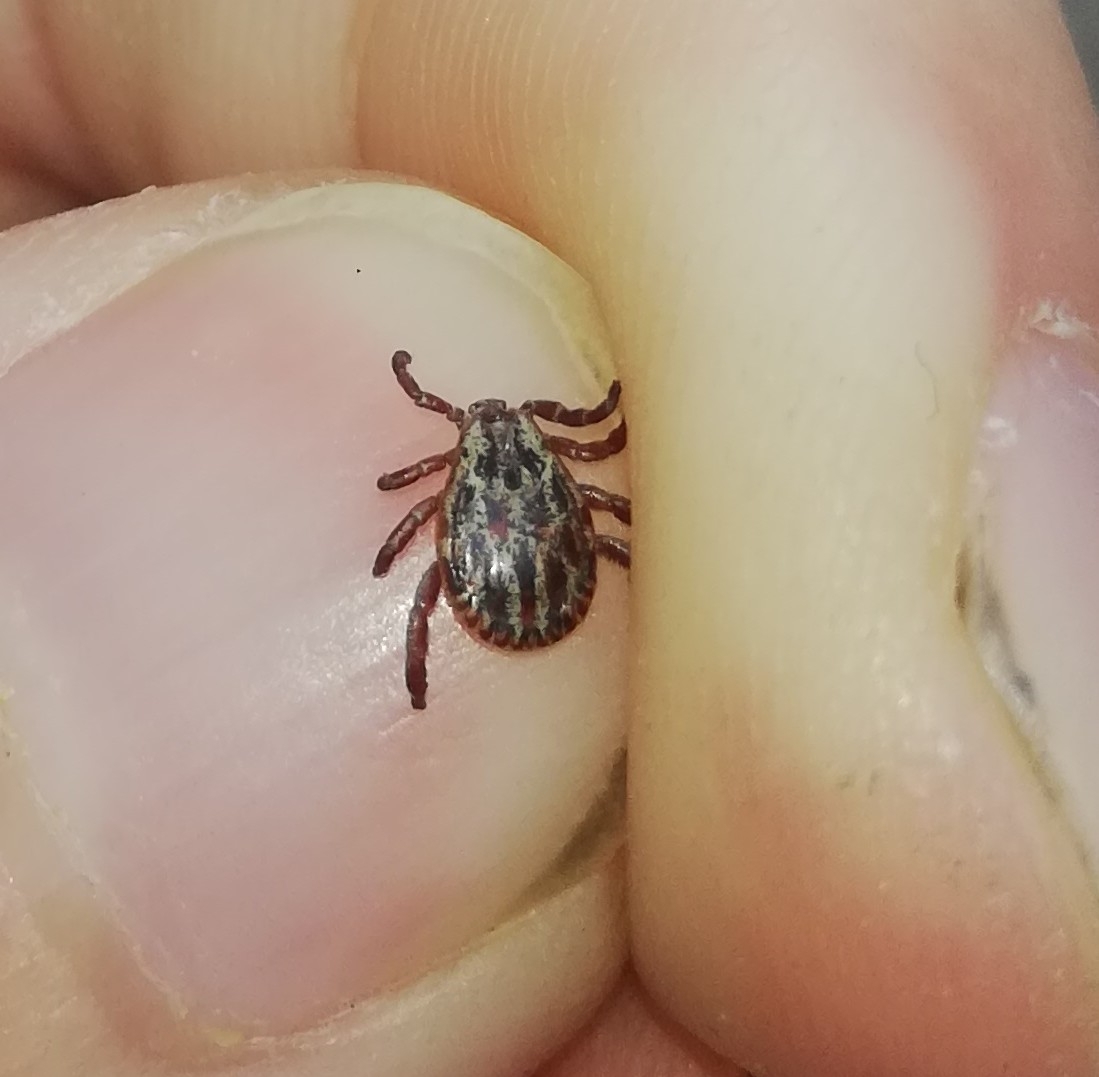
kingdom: Animalia
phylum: Arthropoda
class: Arachnida
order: Ixodida
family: Ixodidae
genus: Dermacentor
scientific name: Dermacentor reticulatus
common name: Ornate cow tick
